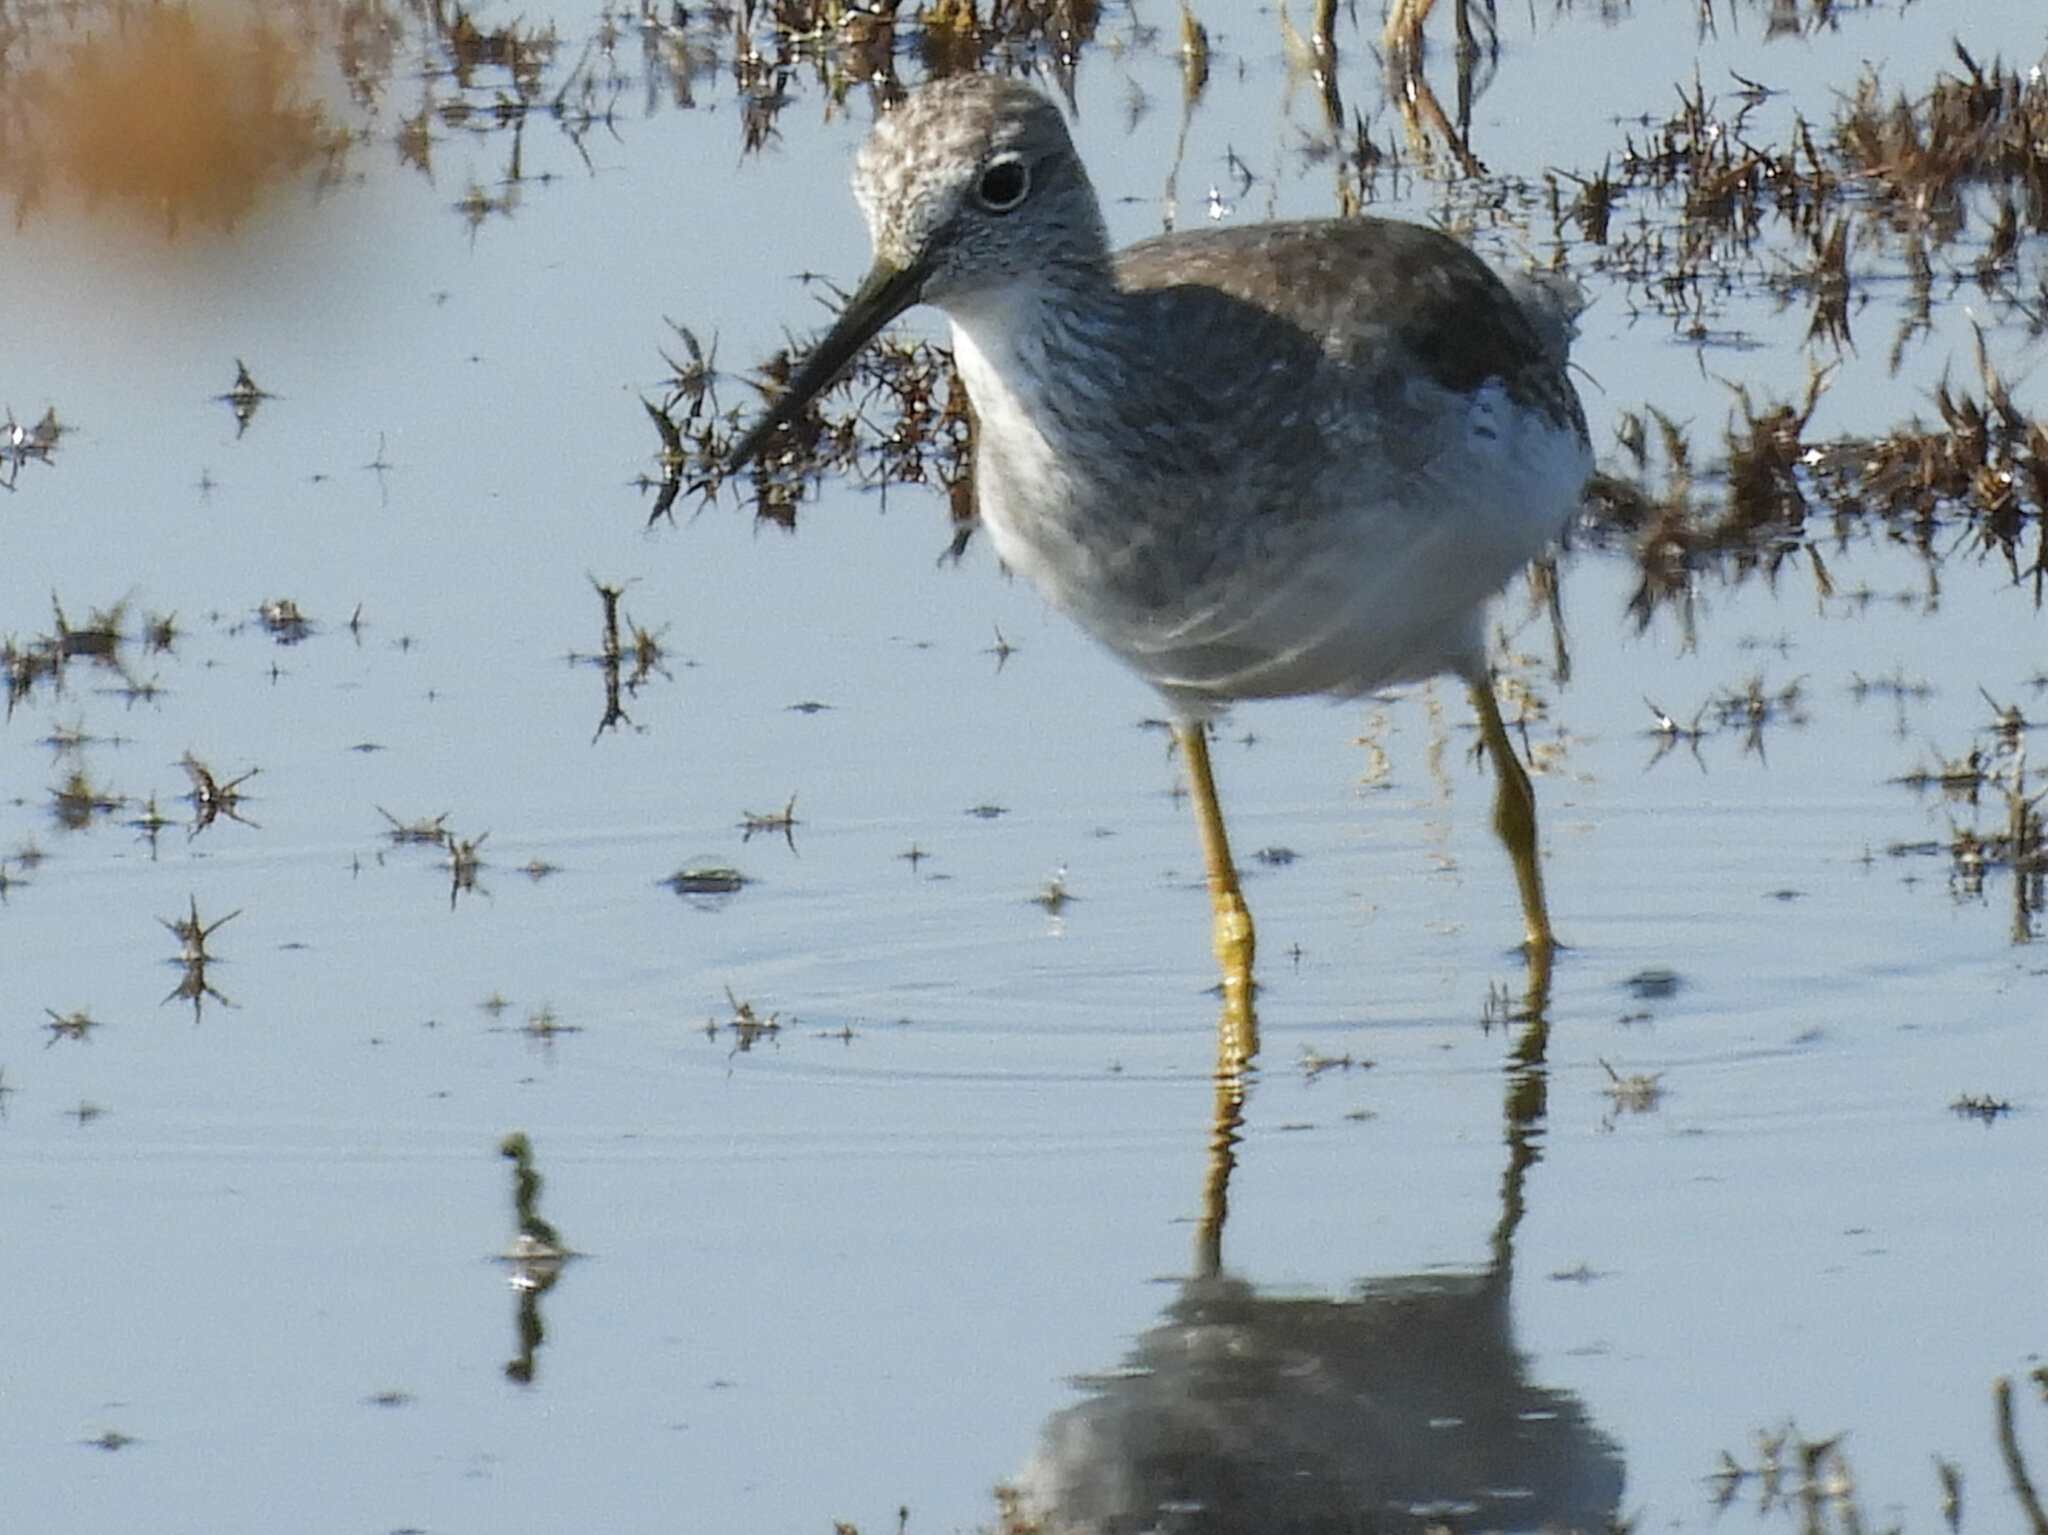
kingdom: Animalia
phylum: Chordata
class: Aves
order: Charadriiformes
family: Scolopacidae
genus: Tringa
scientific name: Tringa melanoleuca
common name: Greater yellowlegs
